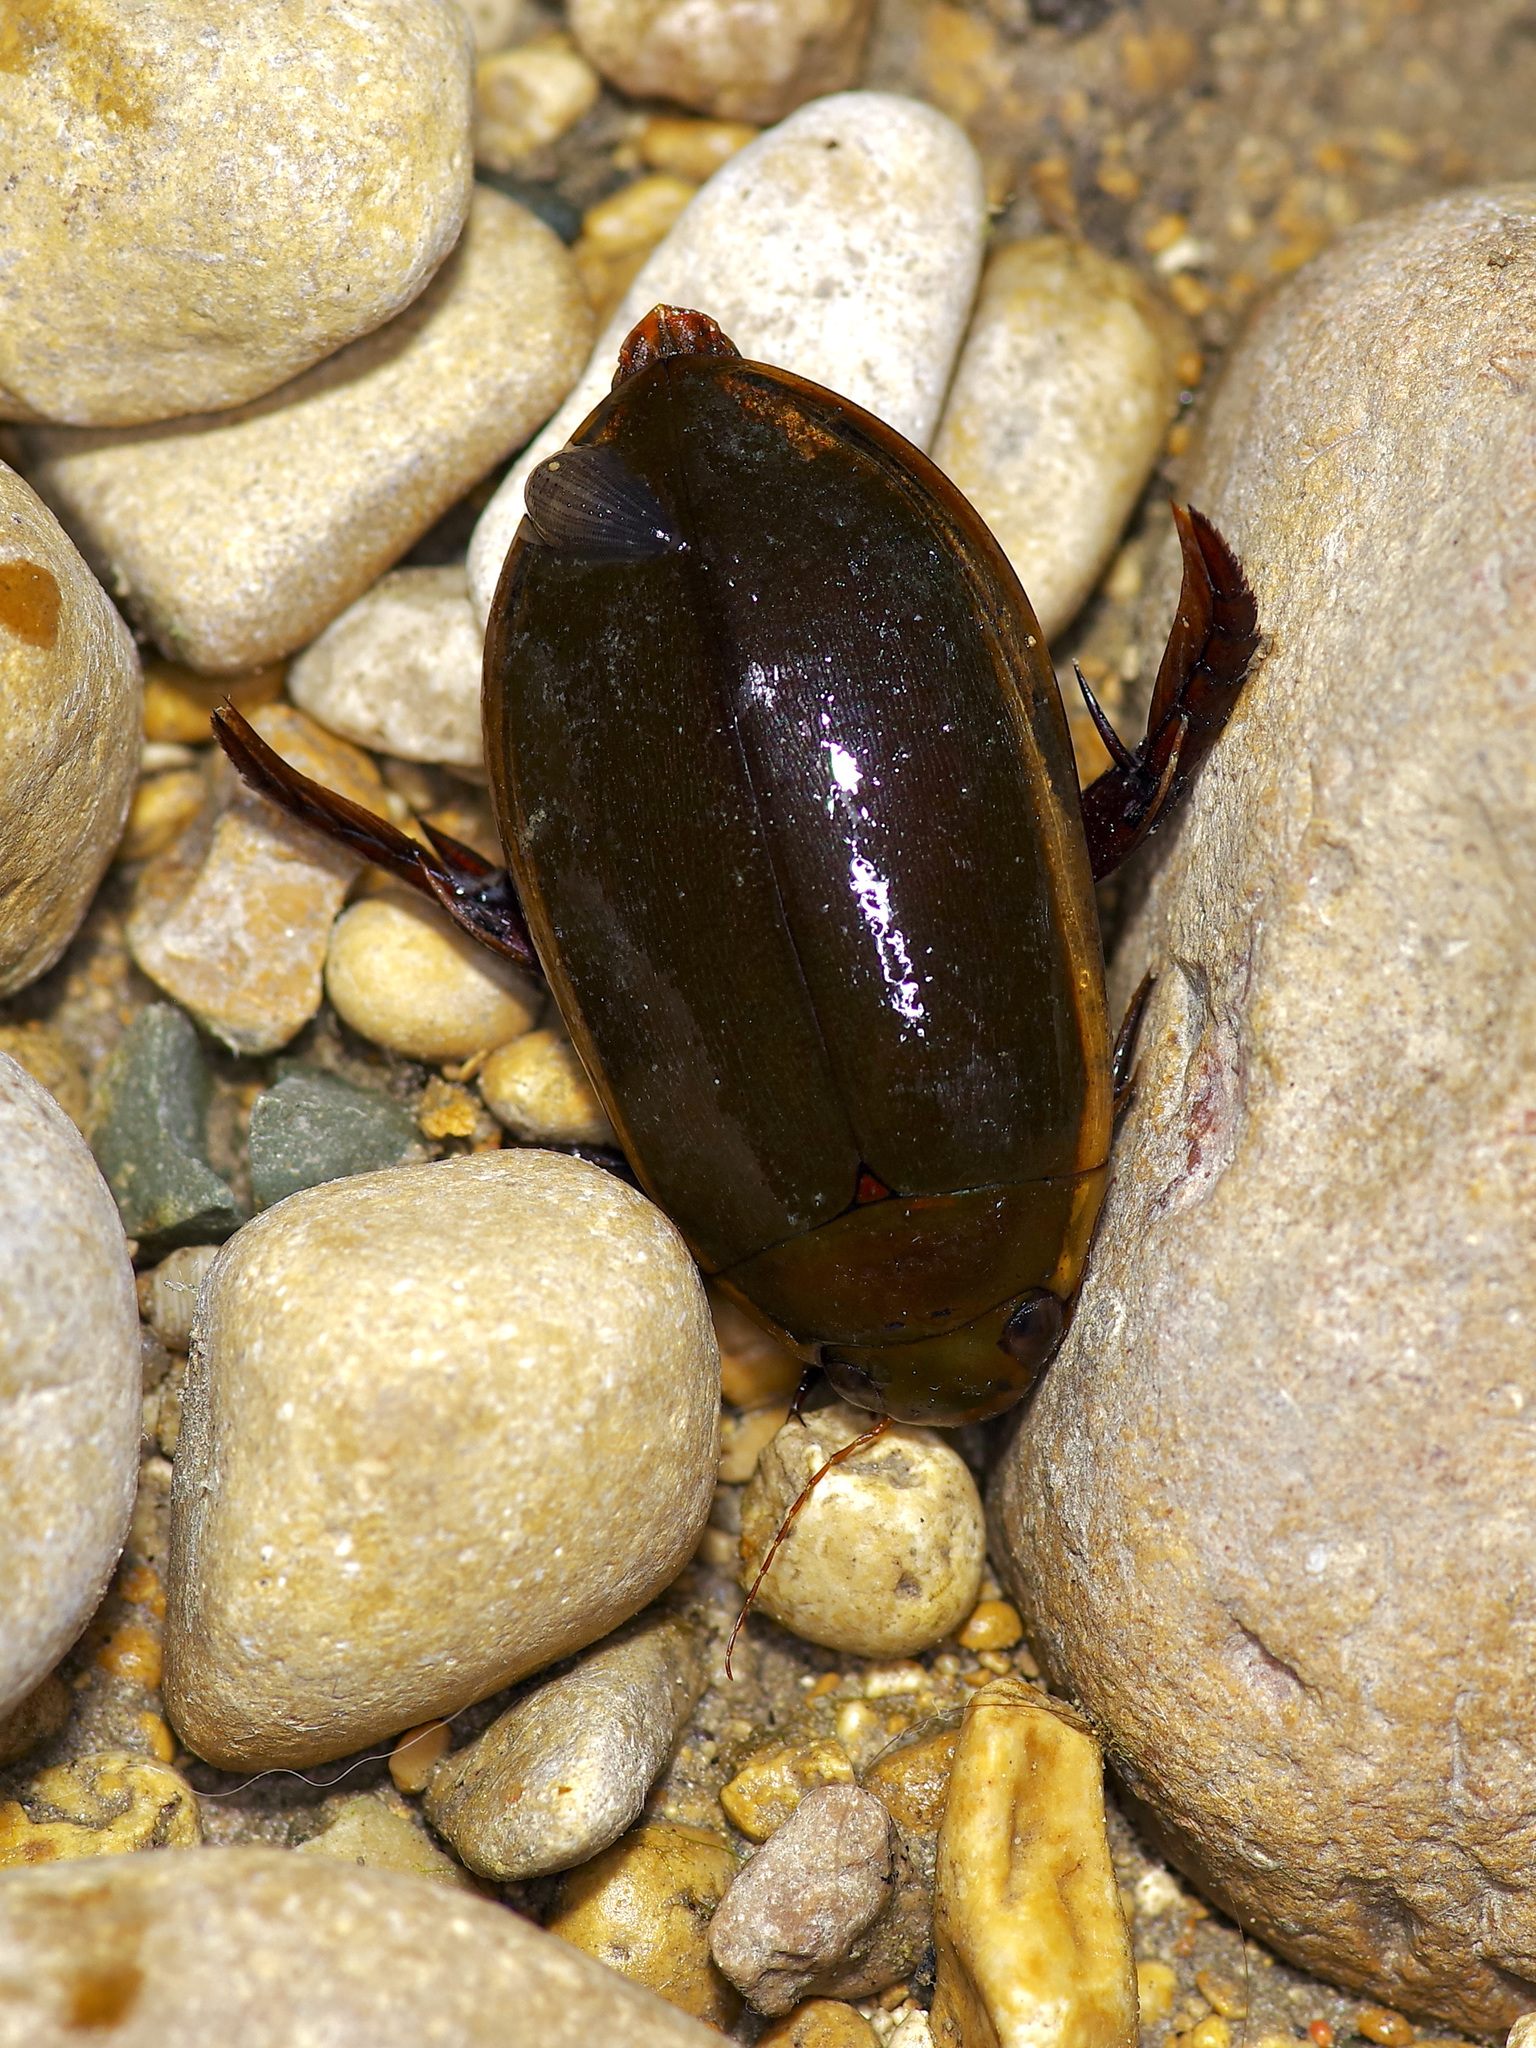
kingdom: Animalia
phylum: Arthropoda
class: Insecta
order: Coleoptera
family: Dytiscidae
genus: Cybister
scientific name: Cybister fimbriolatus
